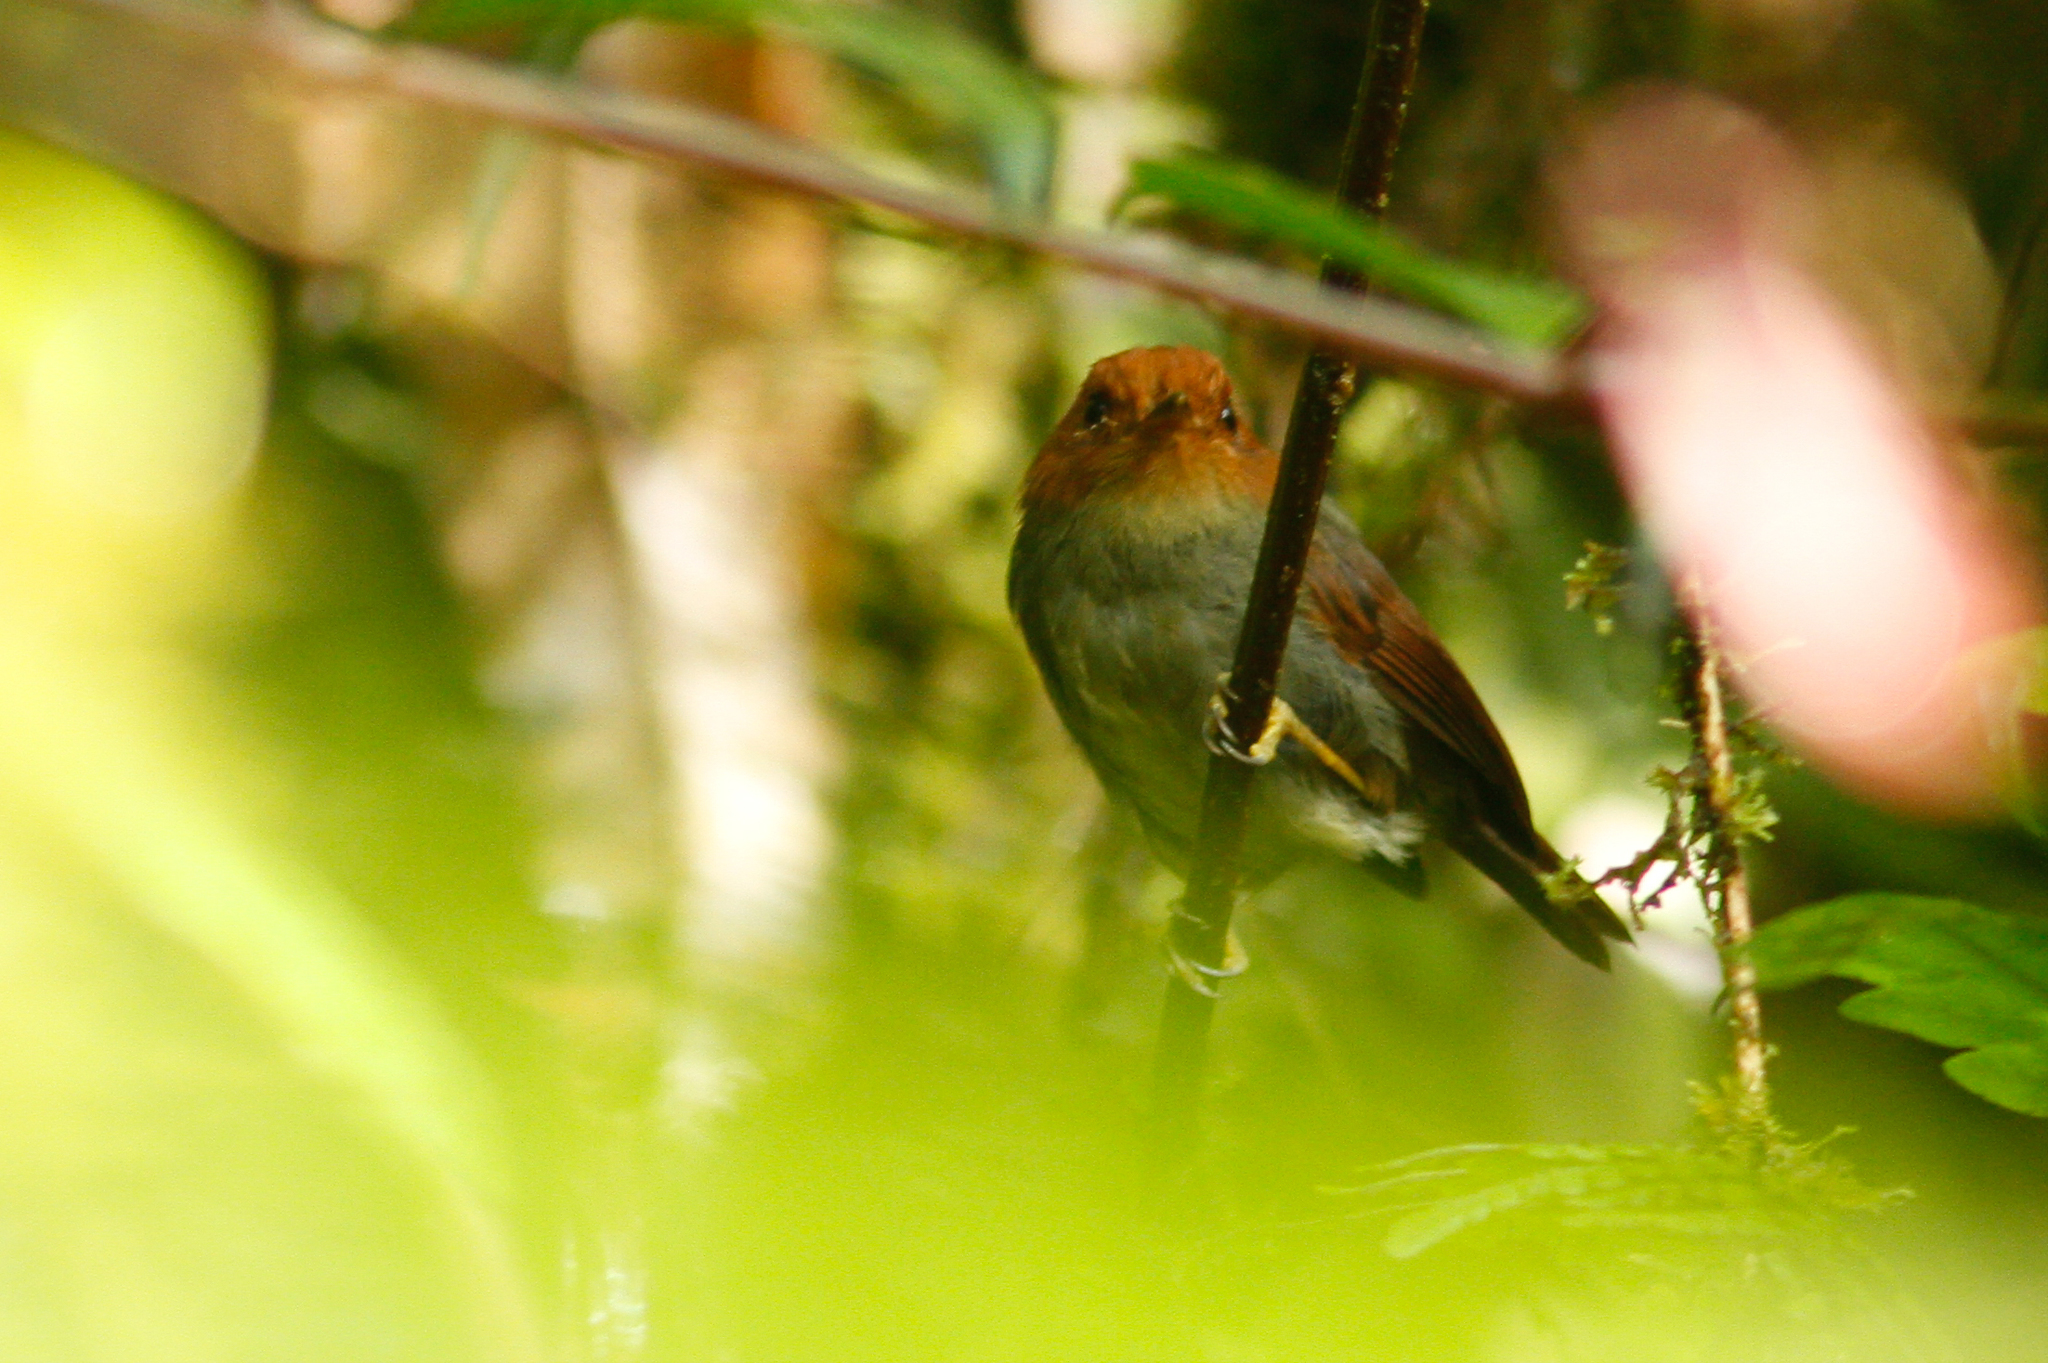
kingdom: Animalia
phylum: Chordata
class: Aves
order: Passeriformes
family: Tyrannidae
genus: Pseudotriccus
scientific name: Pseudotriccus ruficeps
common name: Rufous-headed pygmy tyrant
